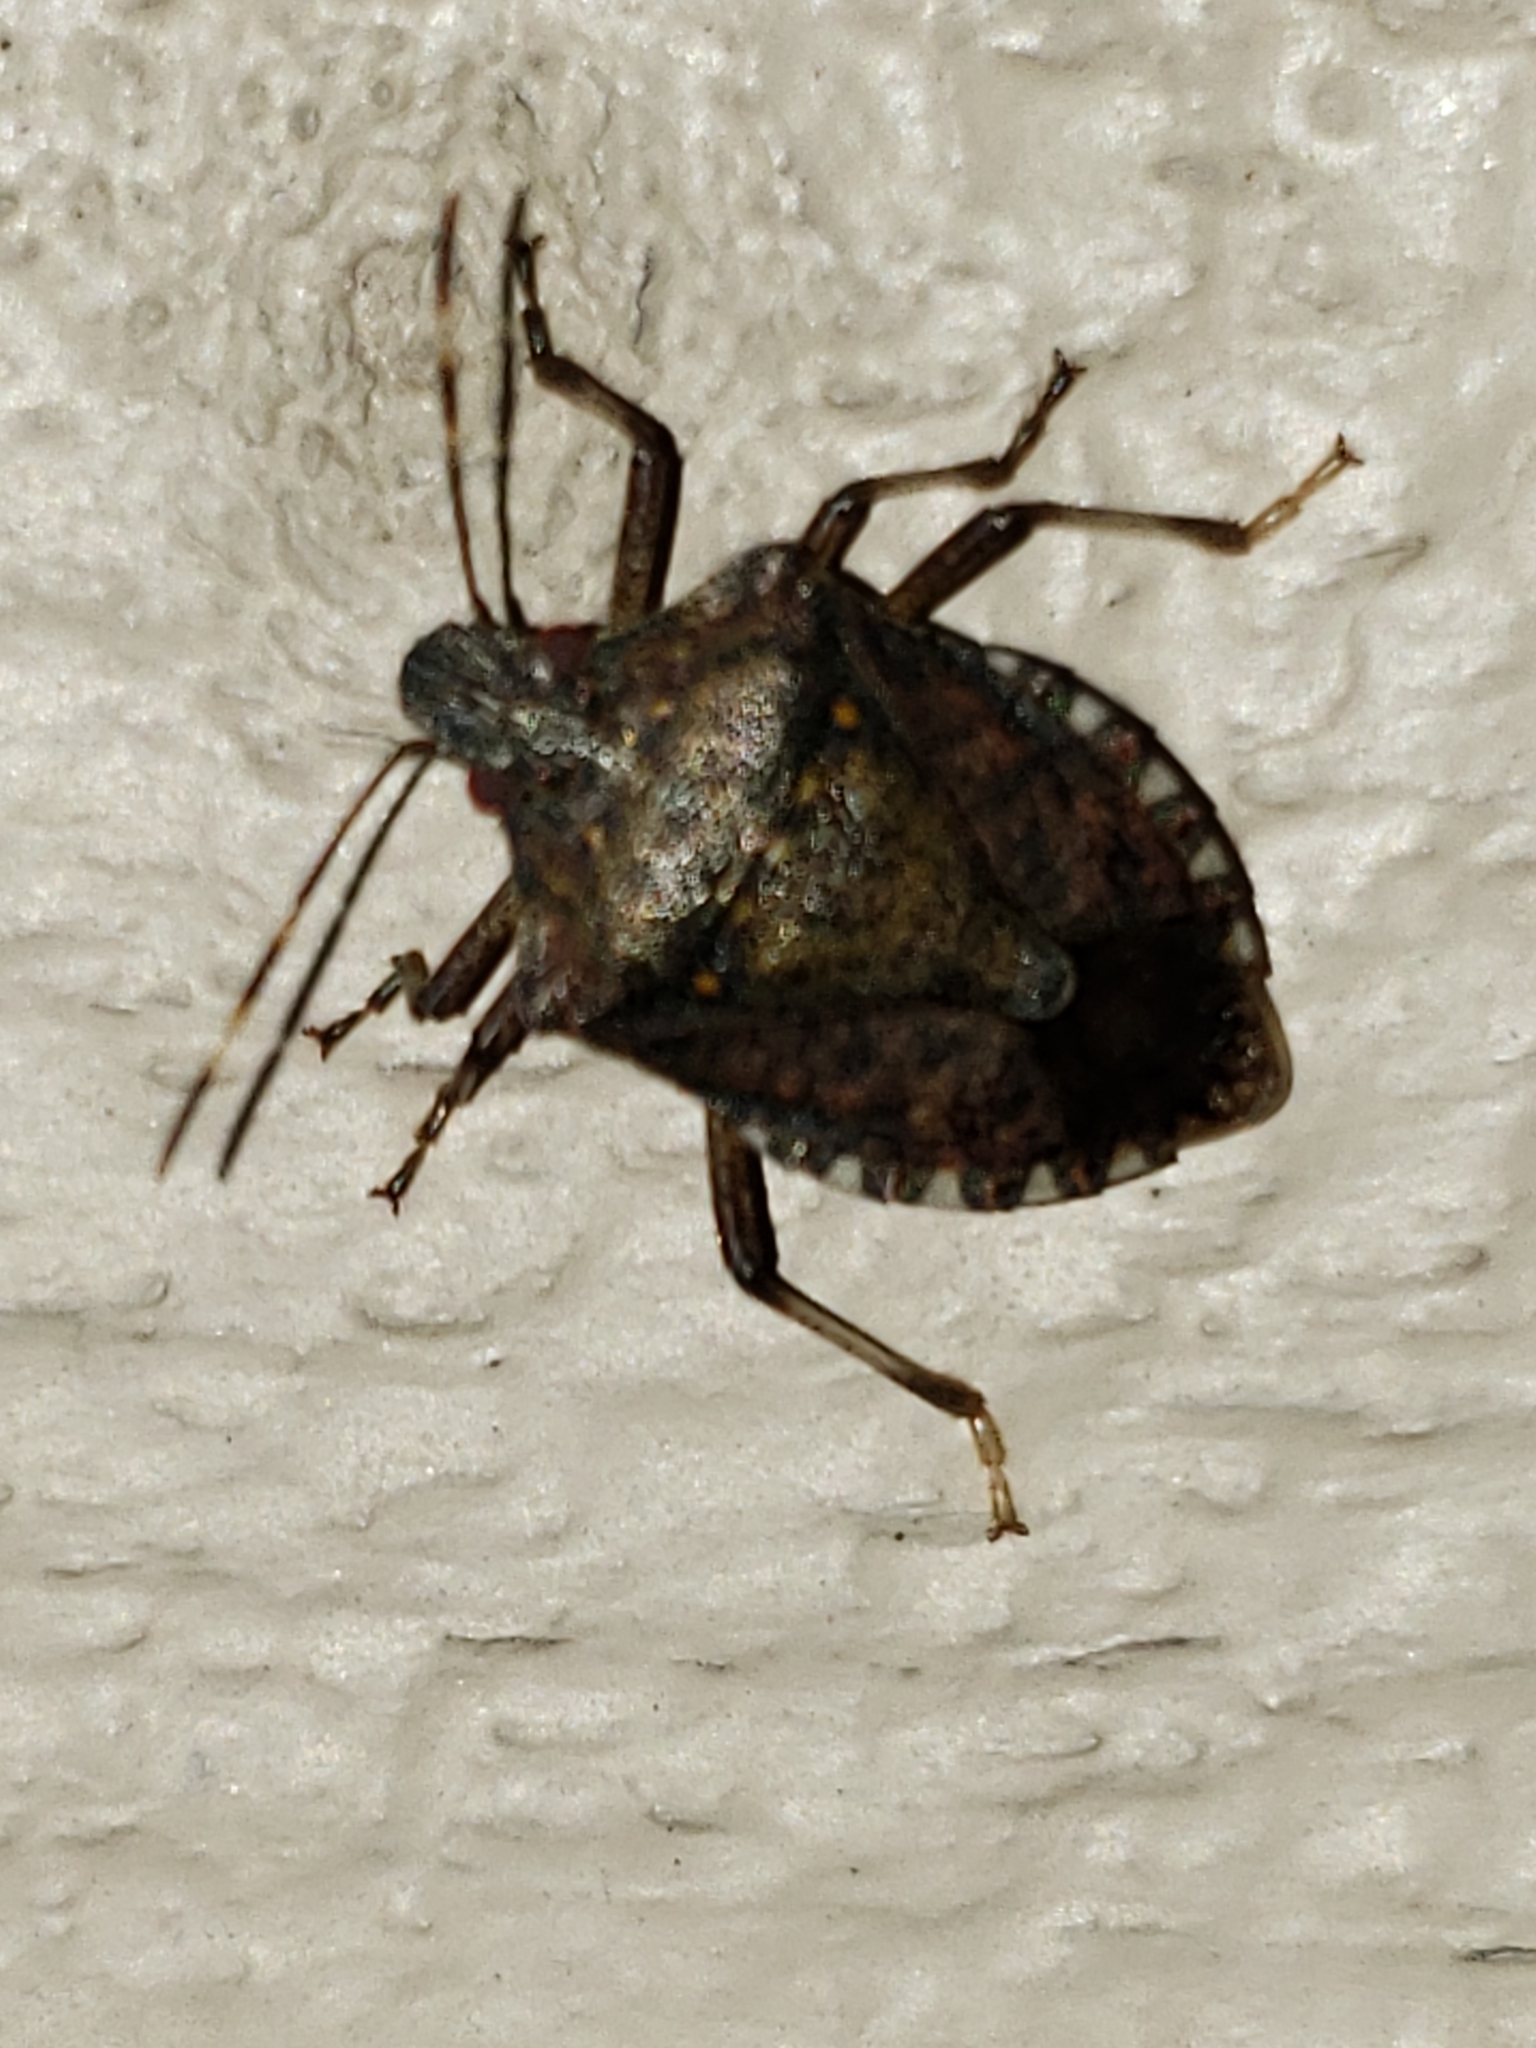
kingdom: Animalia
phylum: Arthropoda
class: Insecta
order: Hemiptera
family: Pentatomidae
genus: Halyomorpha
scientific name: Halyomorpha halys
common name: Brown marmorated stink bug
